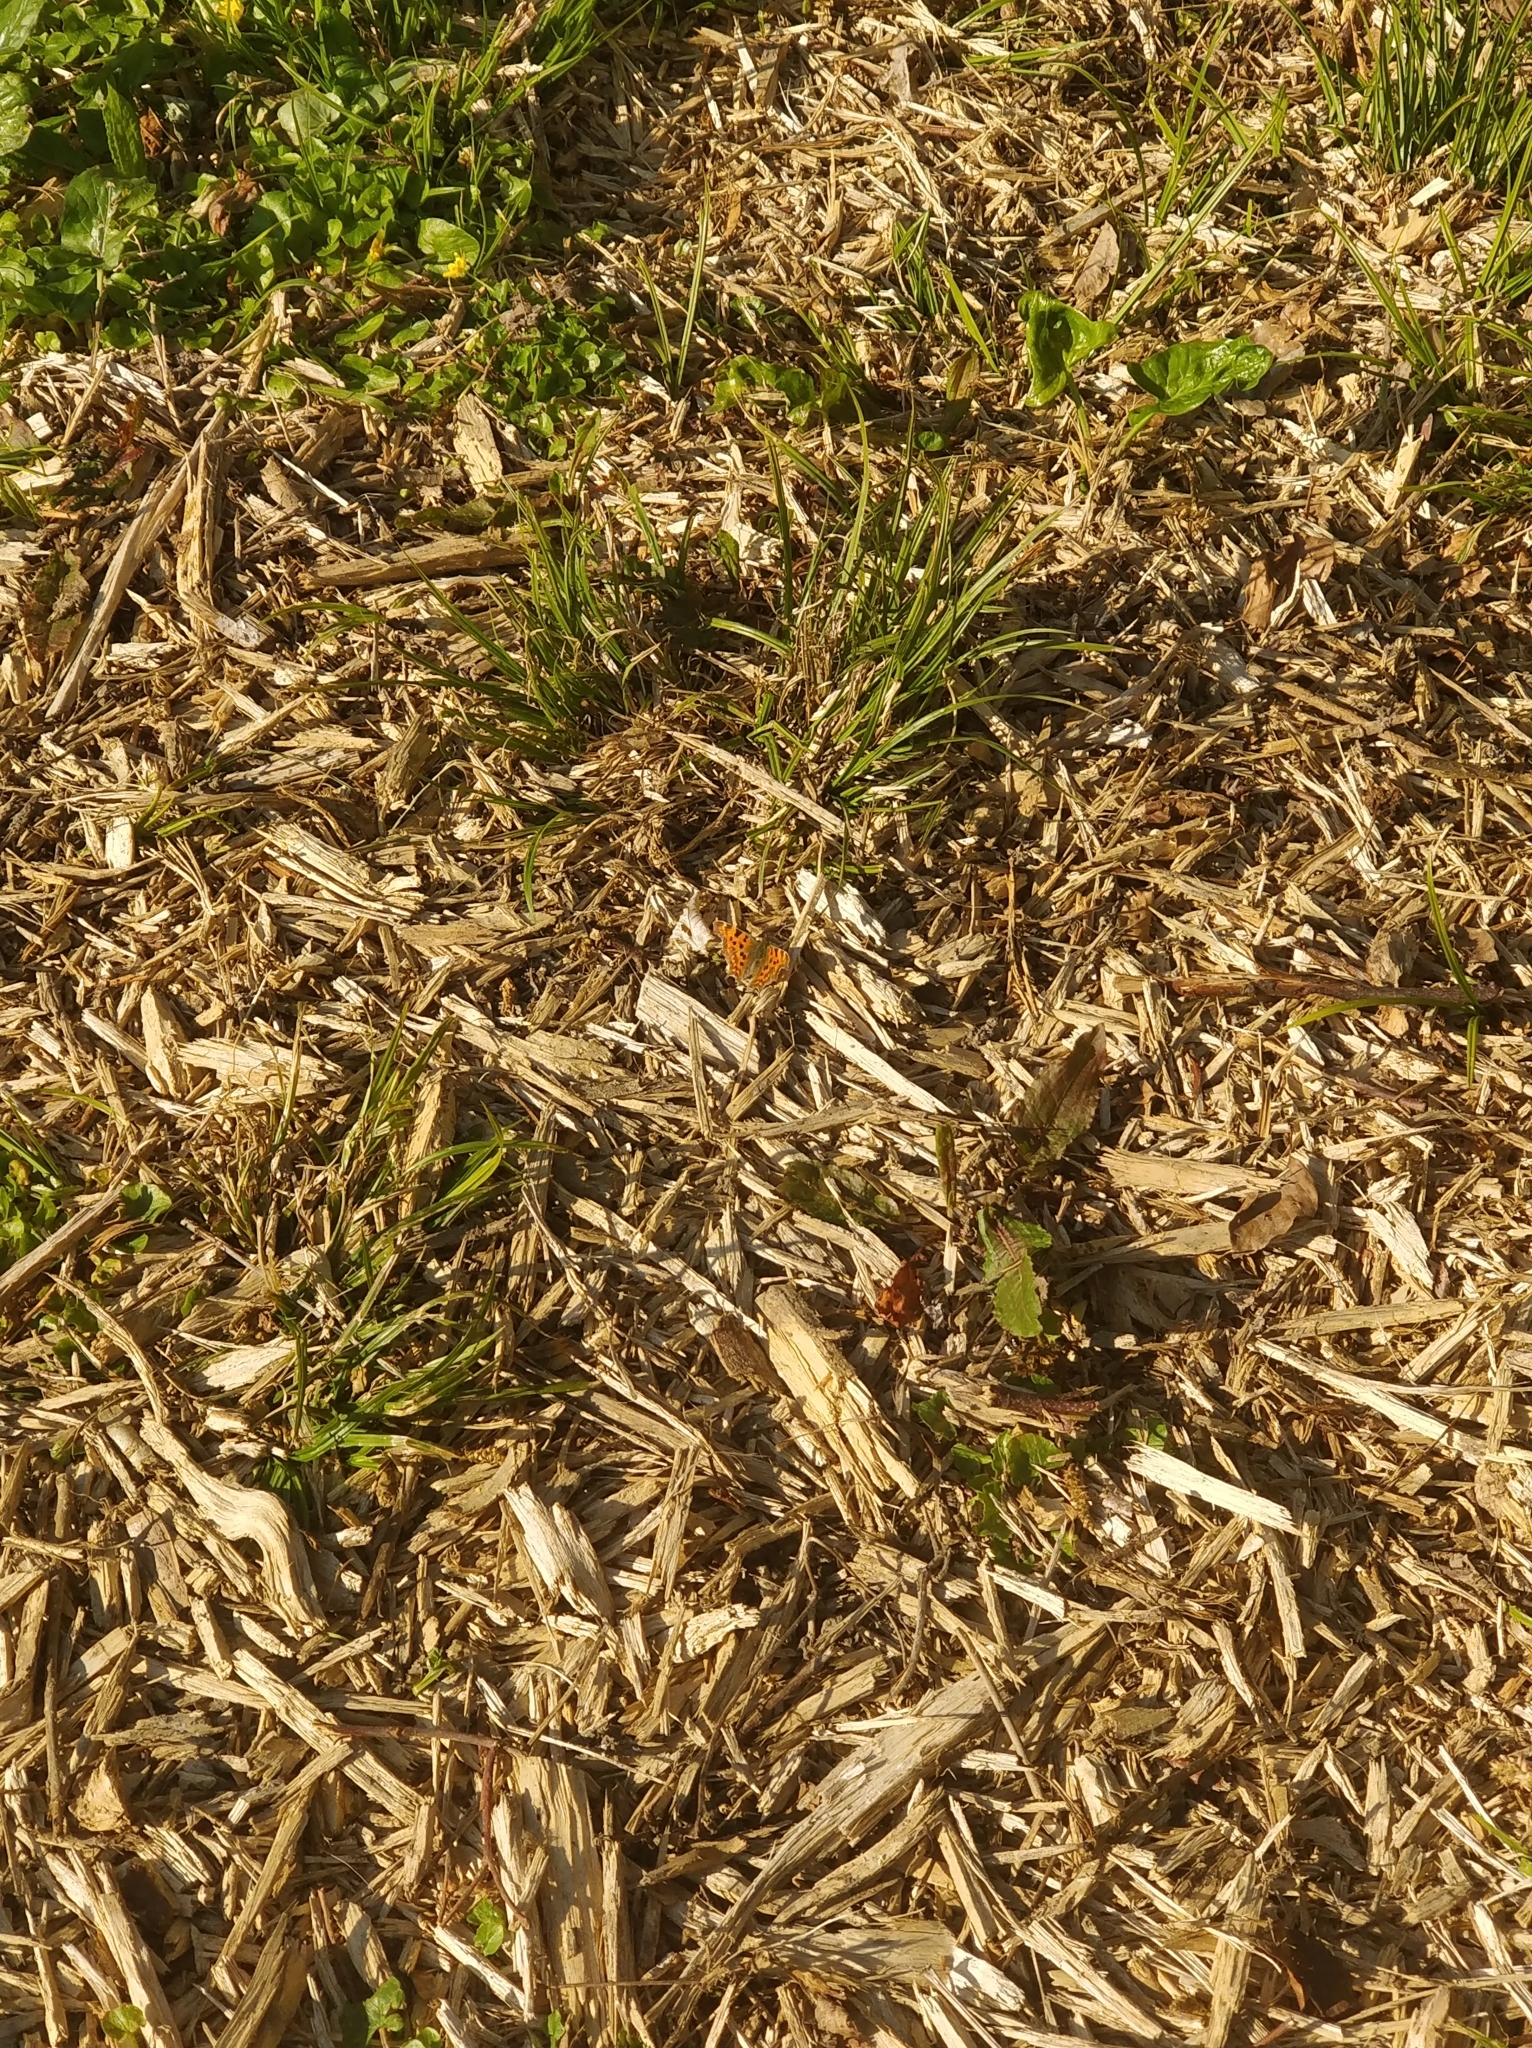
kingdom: Animalia
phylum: Arthropoda
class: Insecta
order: Lepidoptera
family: Nymphalidae
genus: Polygonia
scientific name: Polygonia c-album
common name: Comma
